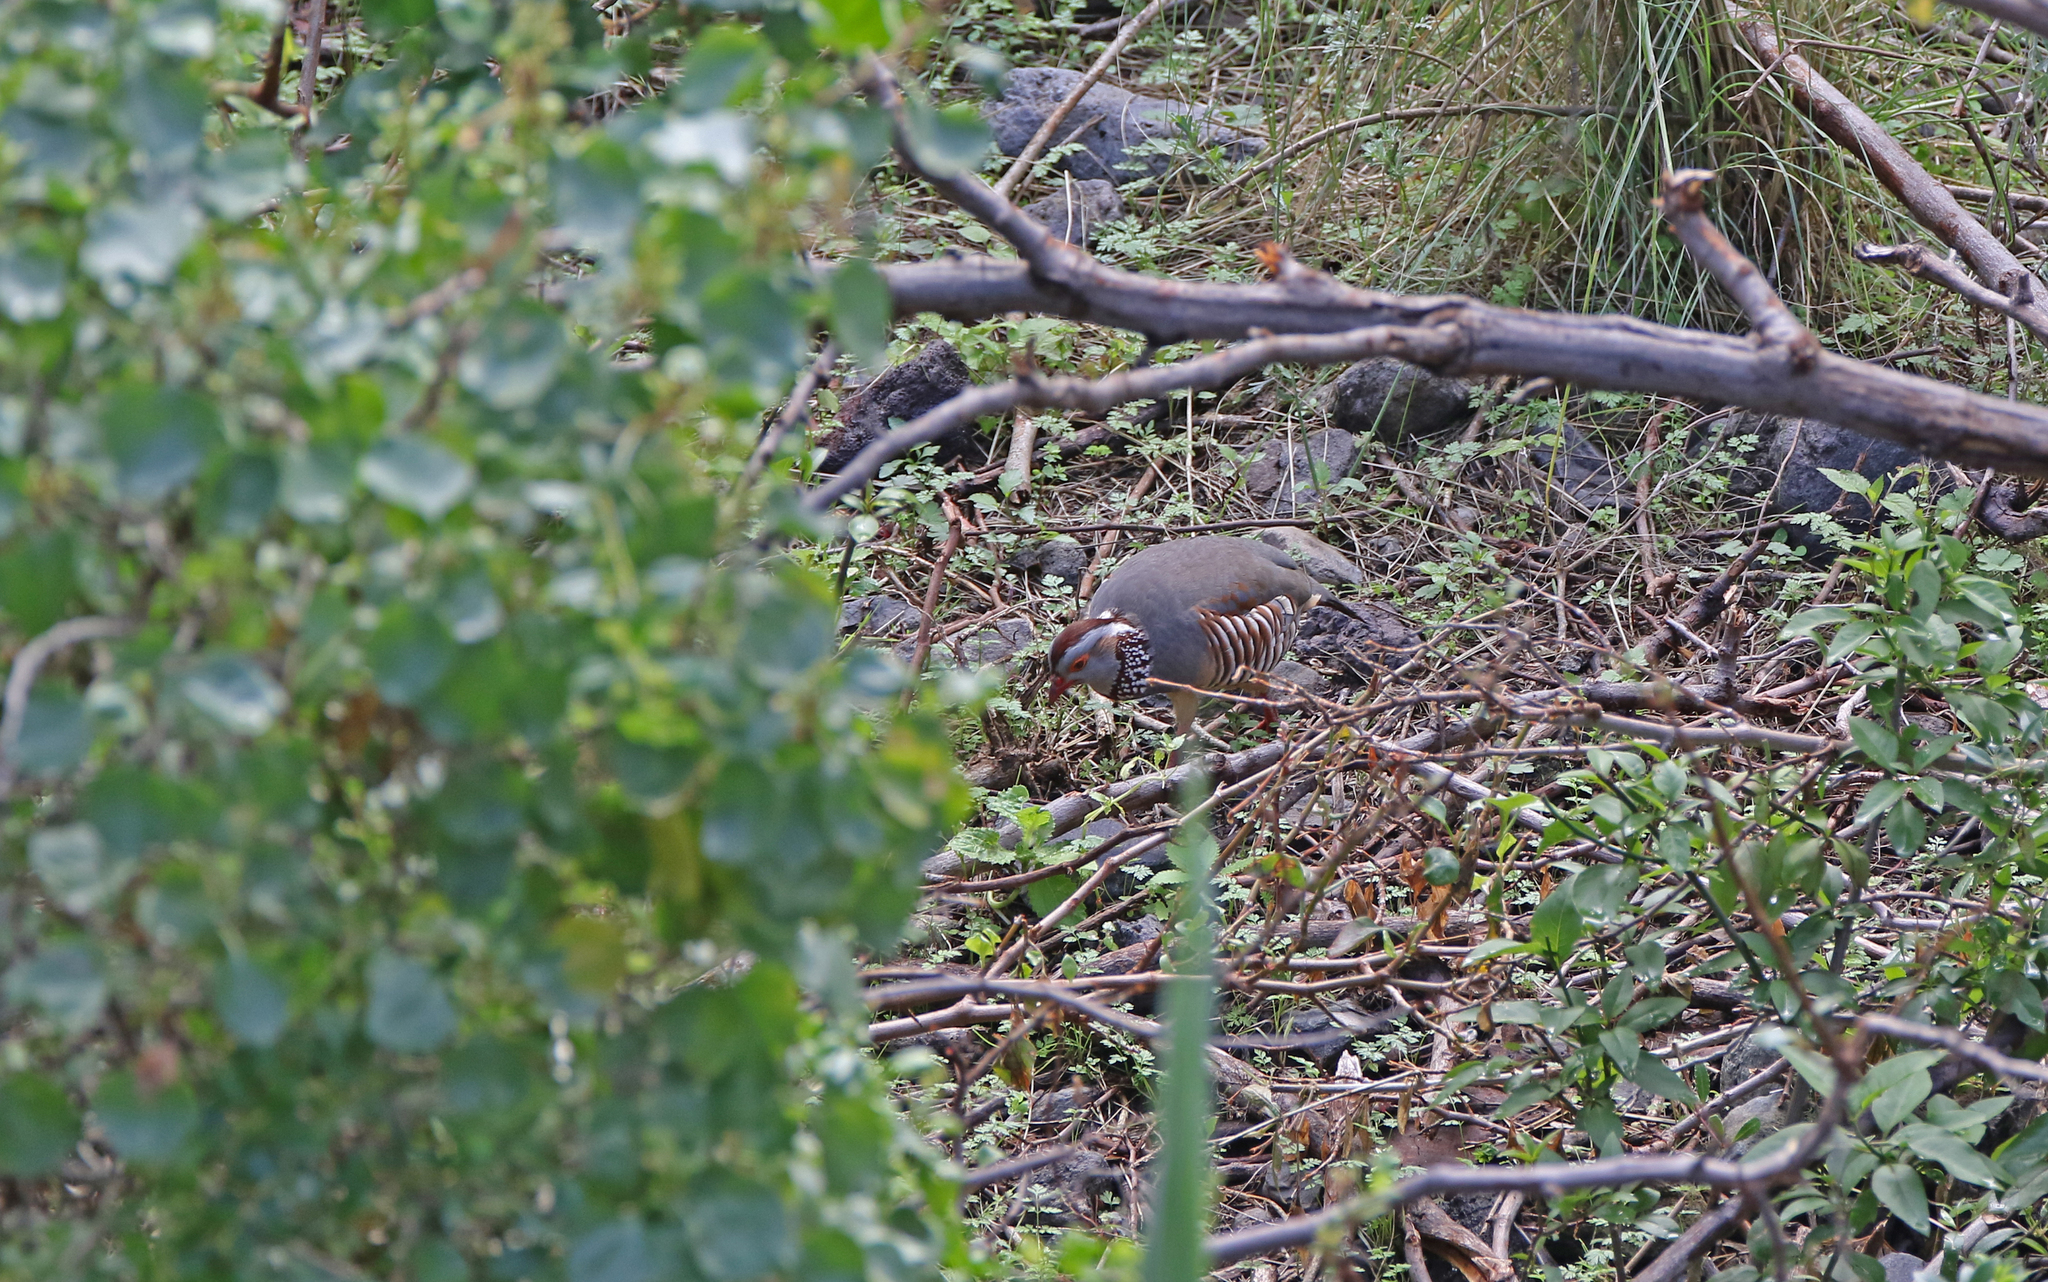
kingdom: Animalia
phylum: Chordata
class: Aves
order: Galliformes
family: Phasianidae
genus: Alectoris
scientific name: Alectoris barbara
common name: Barbary partridge
